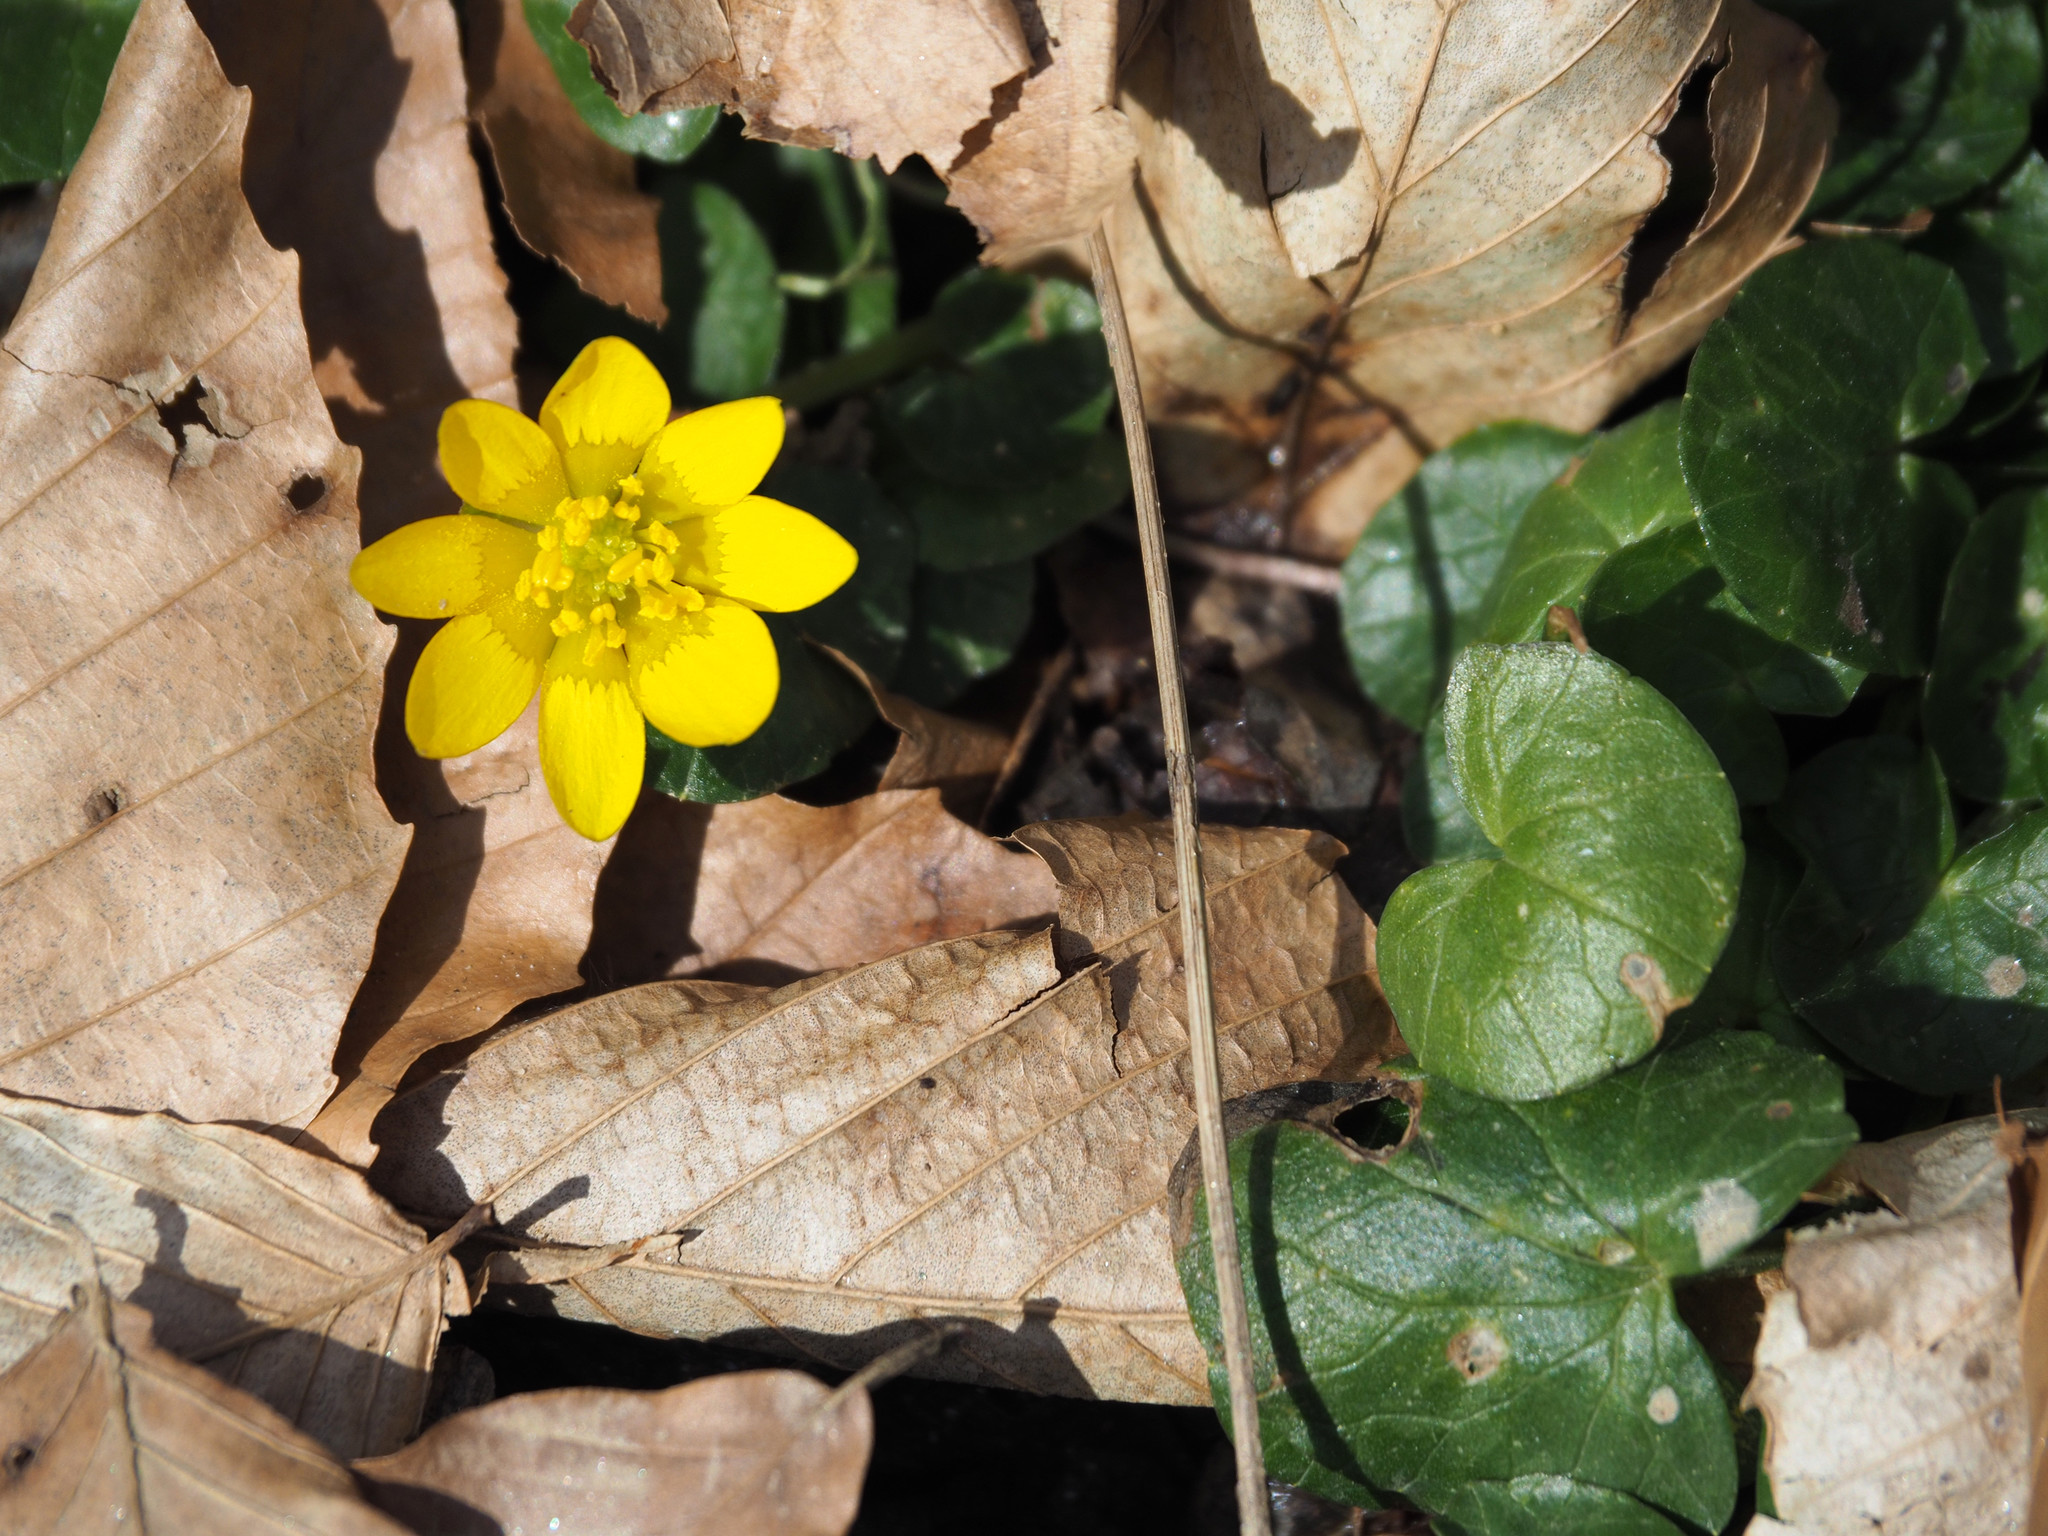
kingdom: Plantae
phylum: Tracheophyta
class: Magnoliopsida
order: Ranunculales
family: Ranunculaceae
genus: Ficaria
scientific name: Ficaria verna
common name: Lesser celandine
